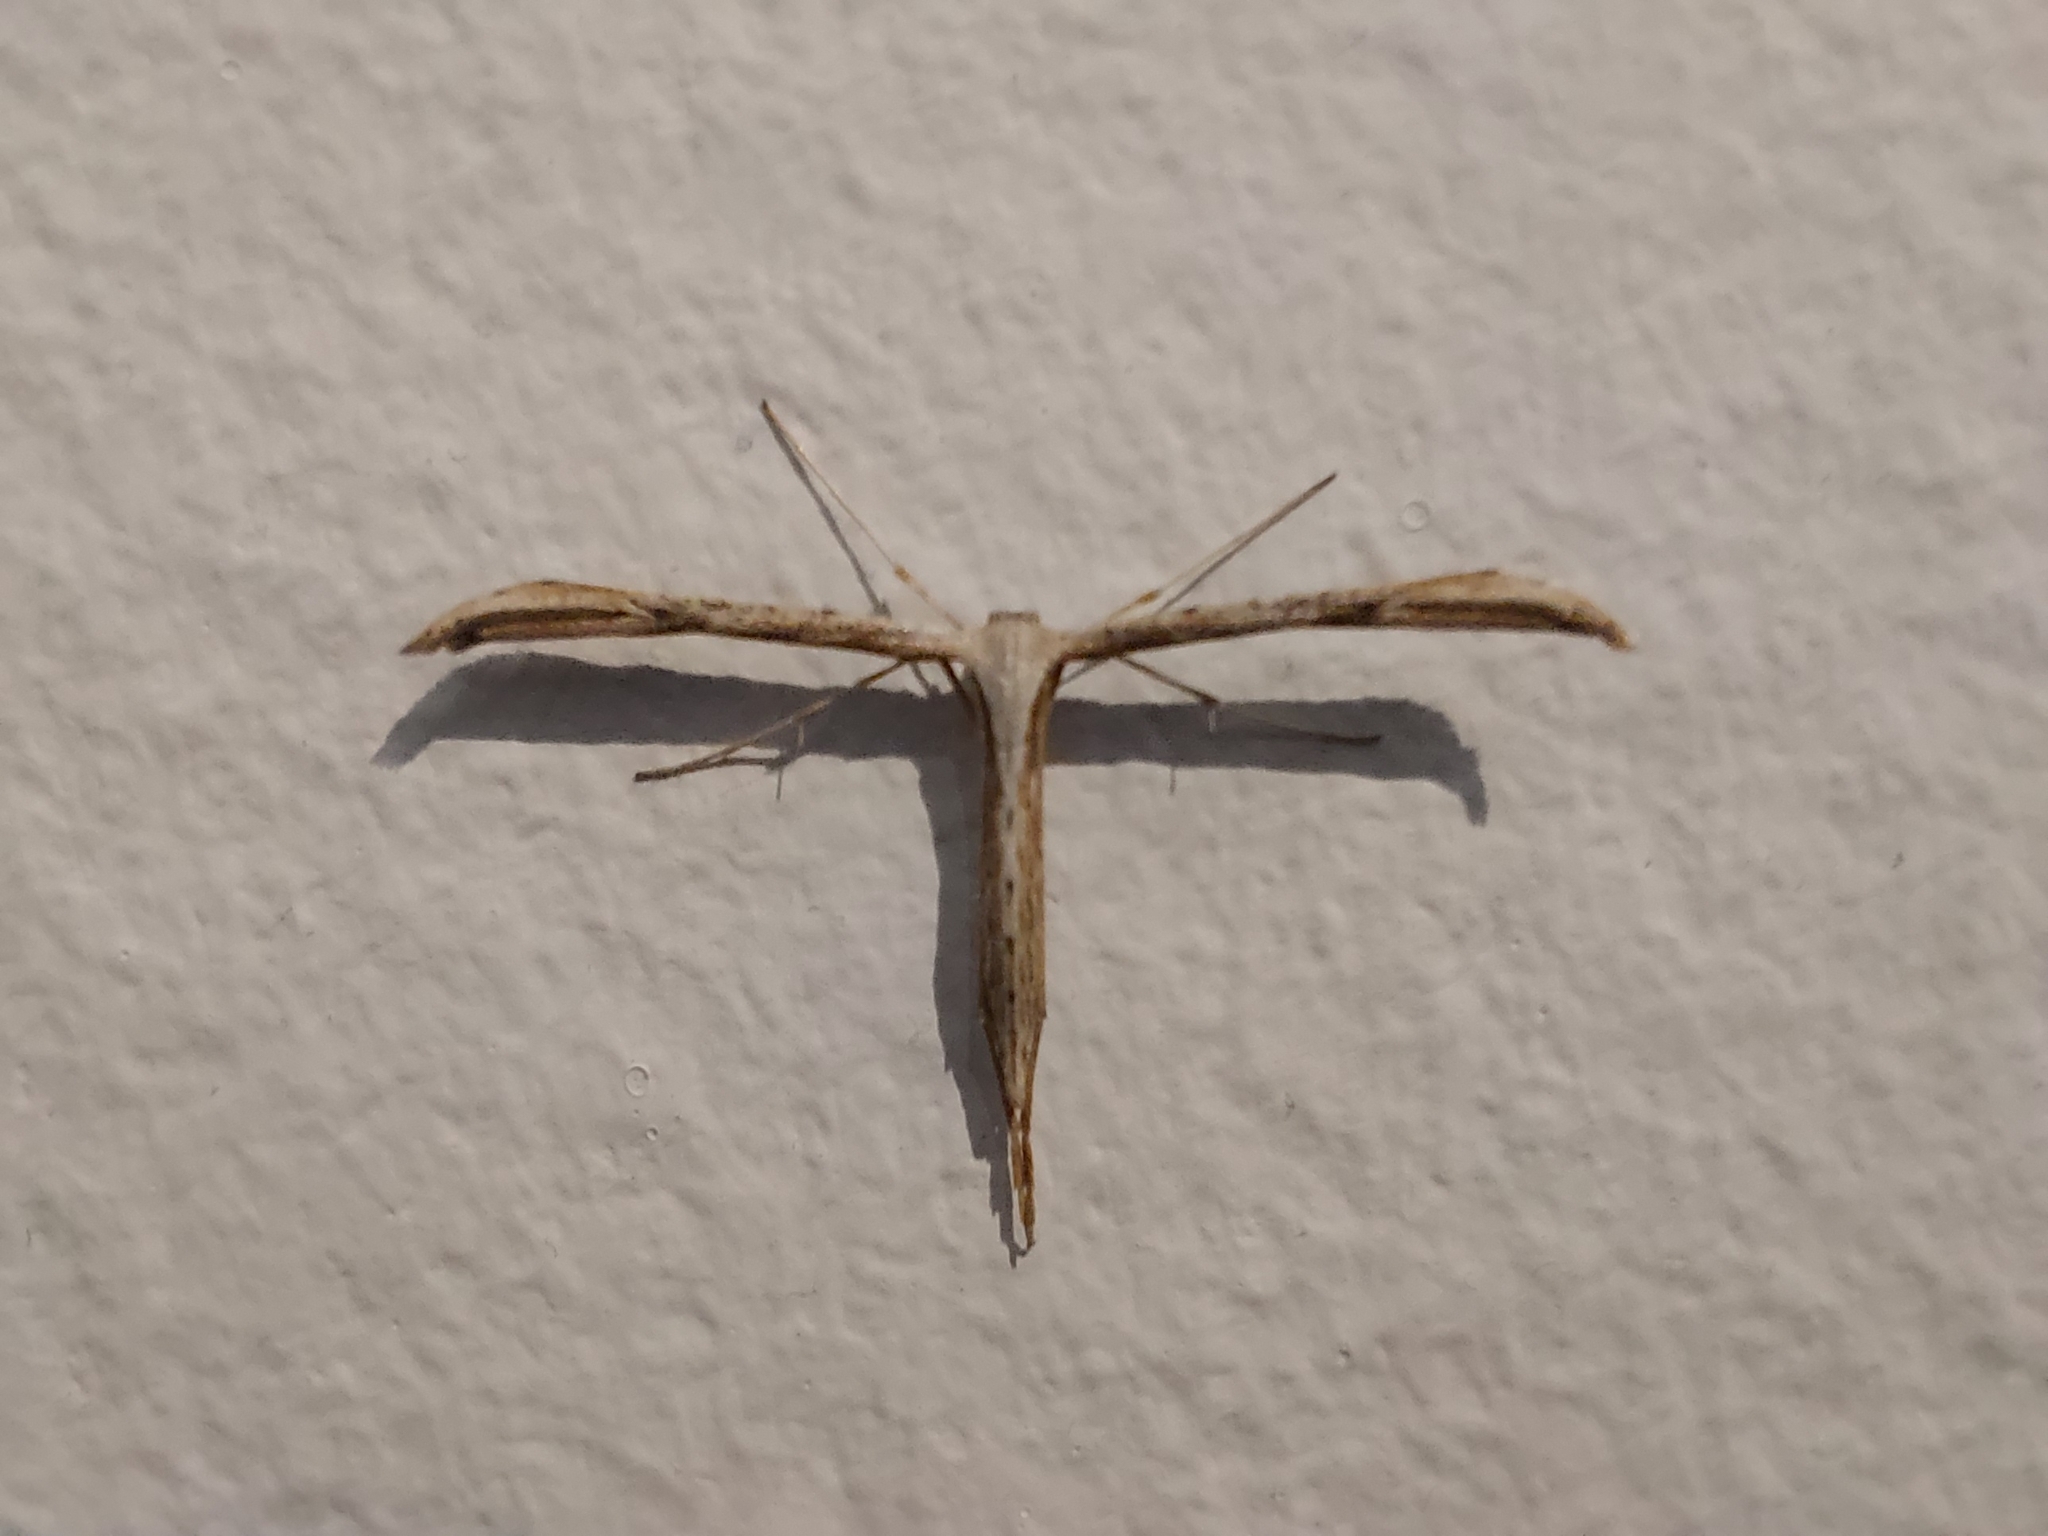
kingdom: Animalia
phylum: Arthropoda
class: Insecta
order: Lepidoptera
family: Pterophoridae
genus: Emmelina
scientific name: Emmelina monodactyla
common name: Common plume
